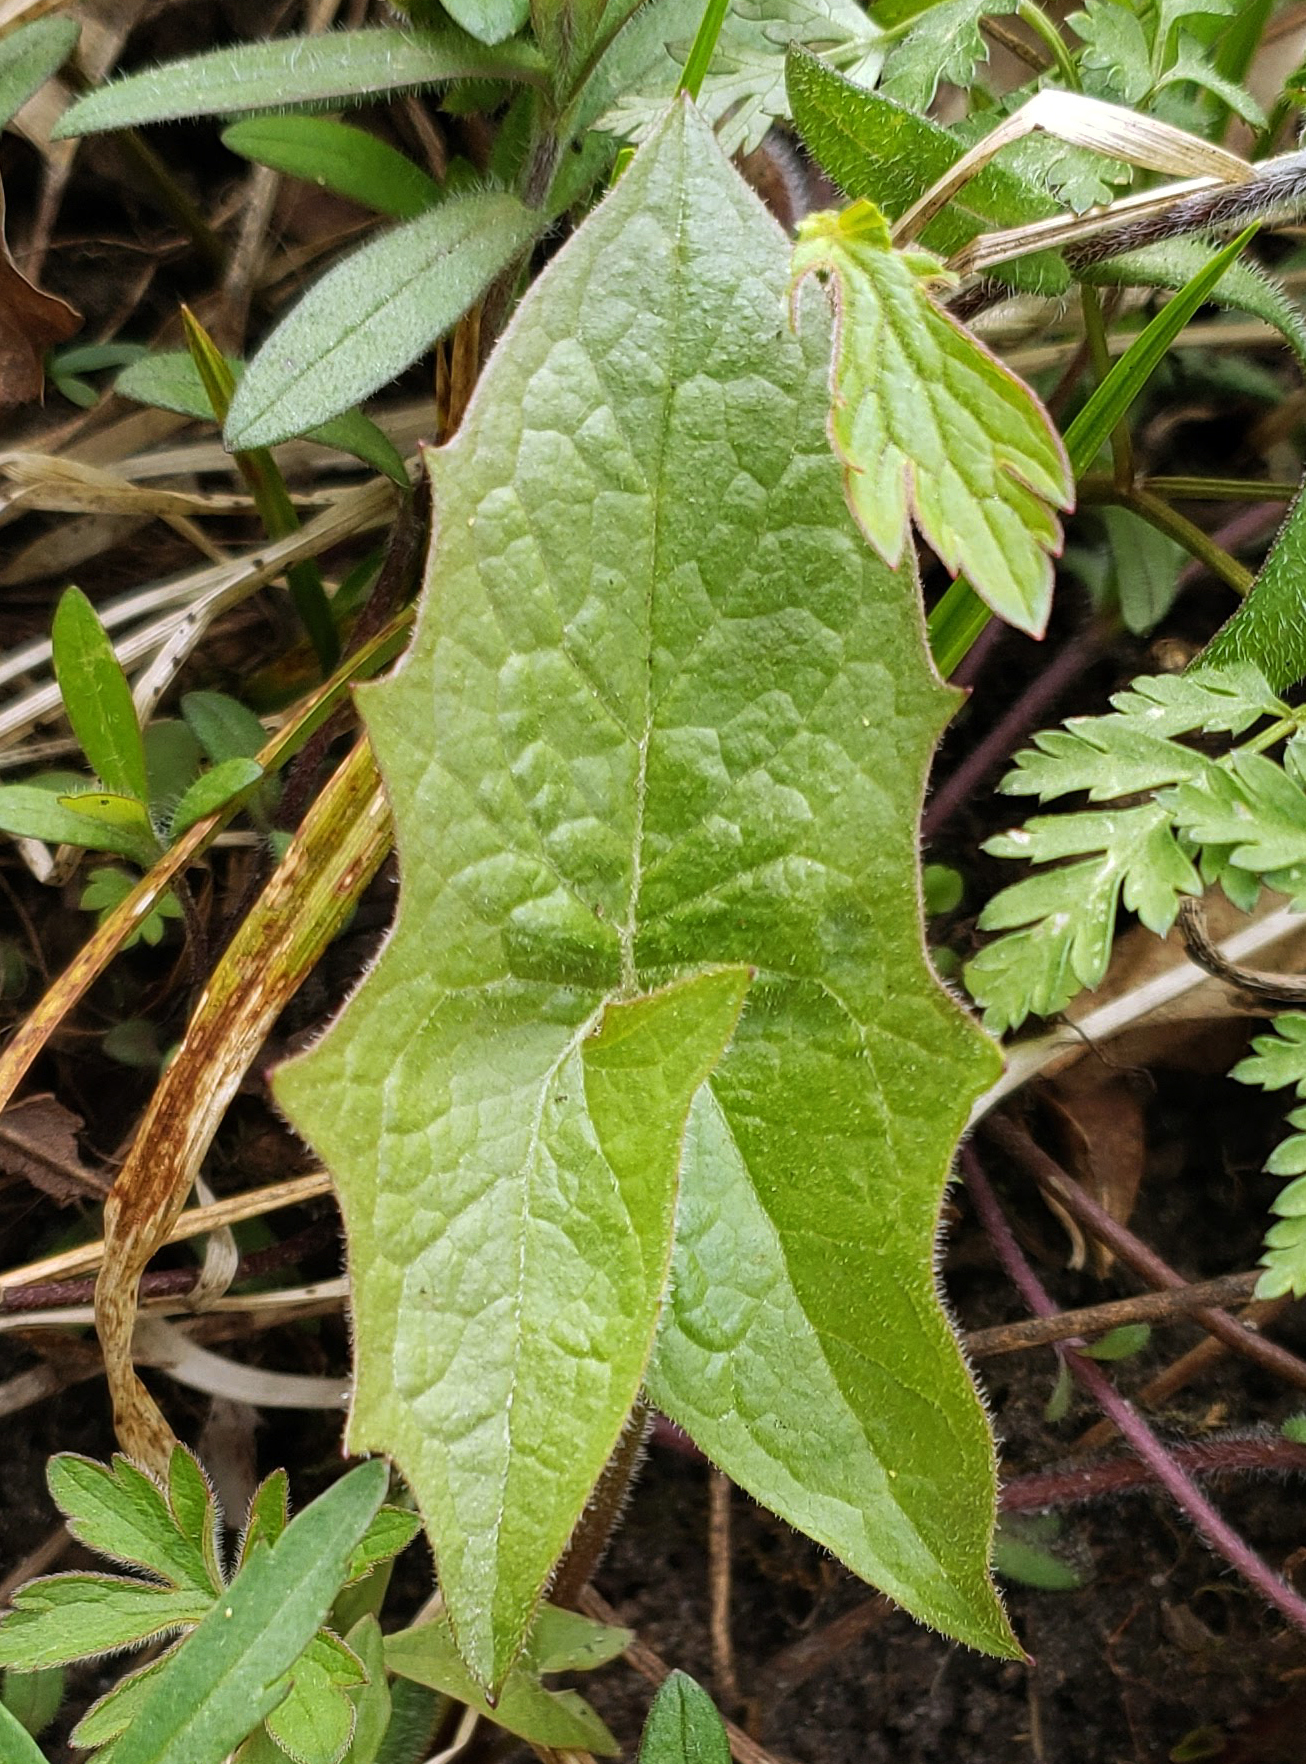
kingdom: Plantae
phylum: Tracheophyta
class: Magnoliopsida
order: Asterales
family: Asteraceae
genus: Nabalus
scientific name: Nabalus albus
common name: White rattlesnakeroot
